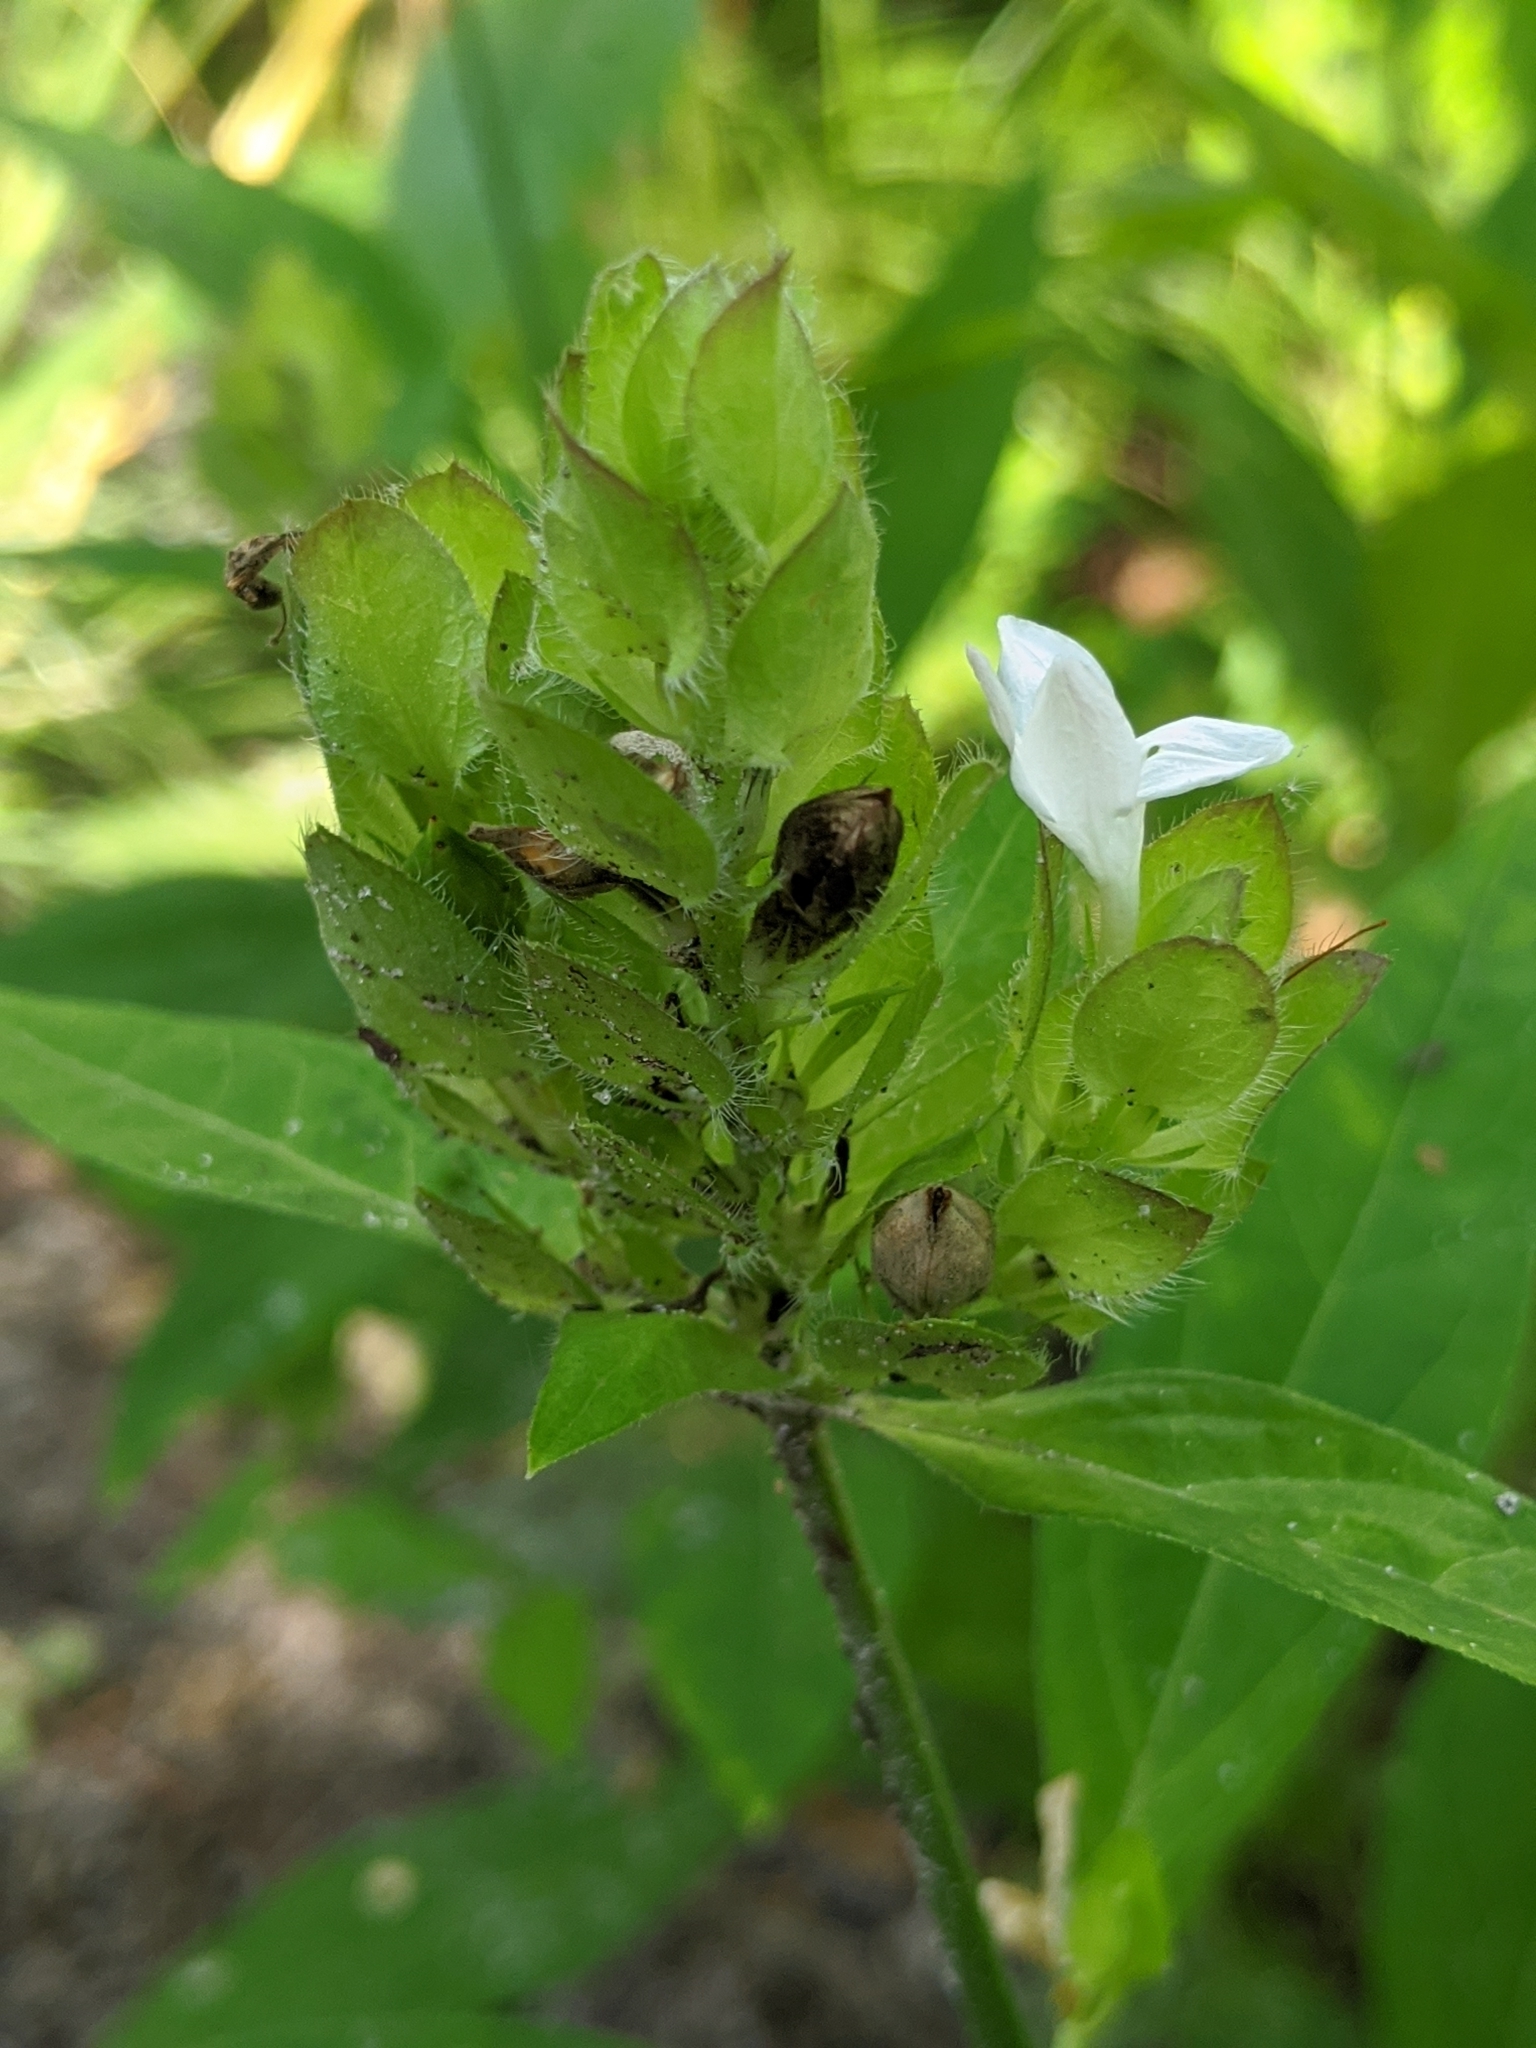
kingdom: Plantae
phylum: Tracheophyta
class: Magnoliopsida
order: Lamiales
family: Acanthaceae
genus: Yeatesia
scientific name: Yeatesia viridiflora
